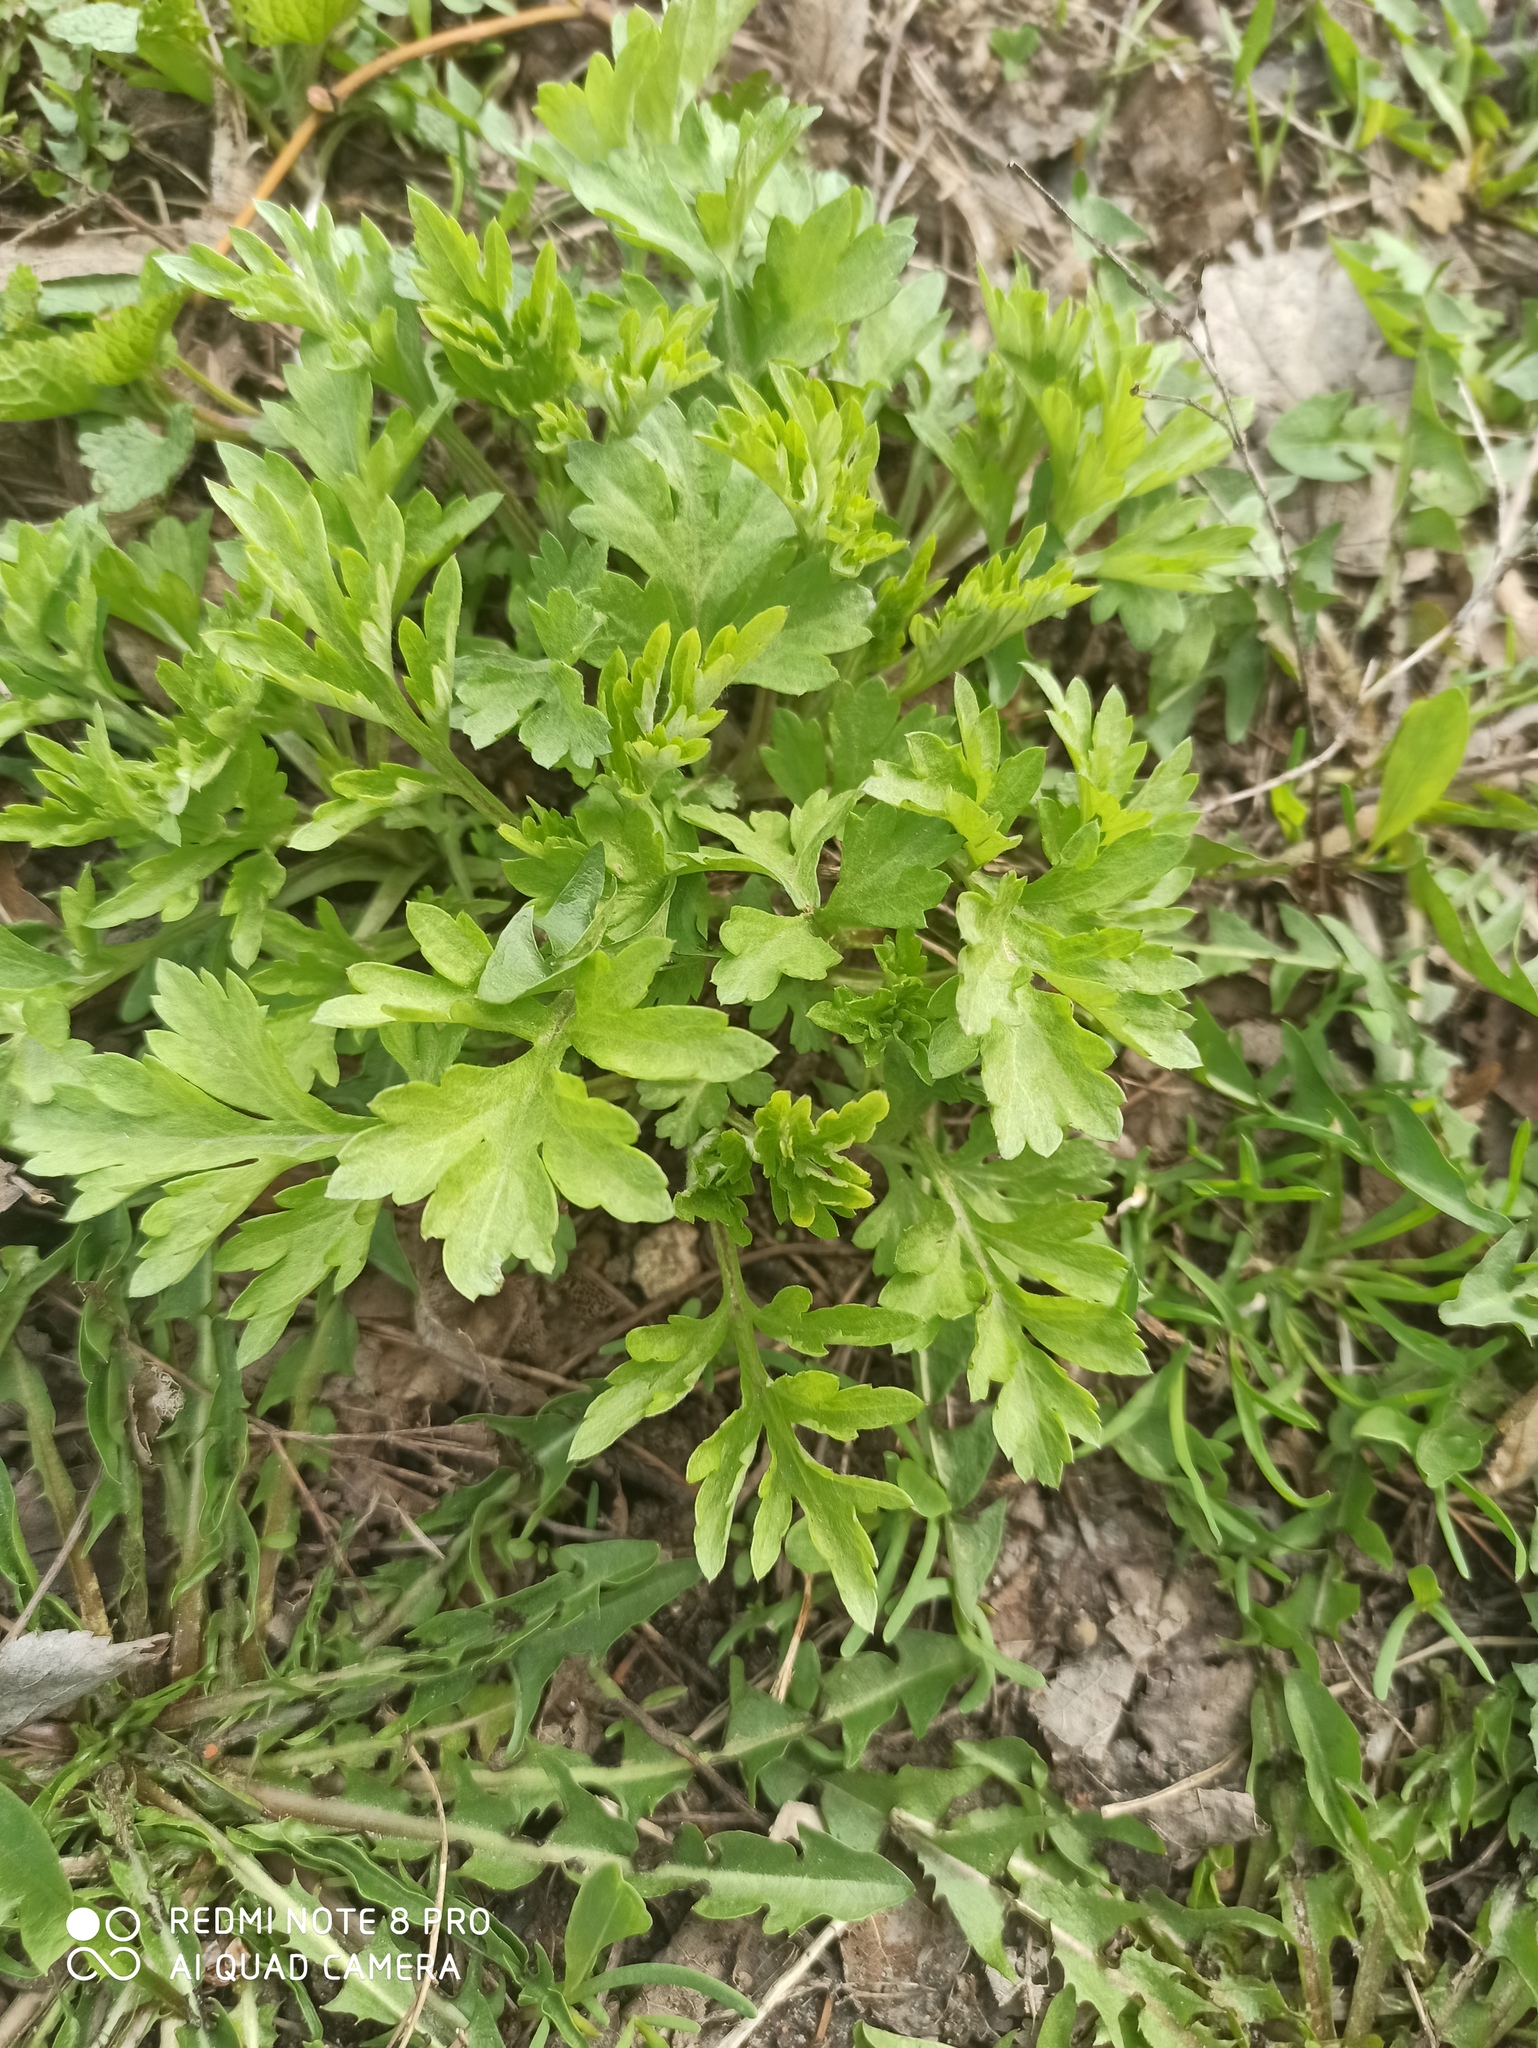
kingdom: Plantae
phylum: Tracheophyta
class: Magnoliopsida
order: Asterales
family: Asteraceae
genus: Artemisia
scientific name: Artemisia vulgaris
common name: Mugwort
